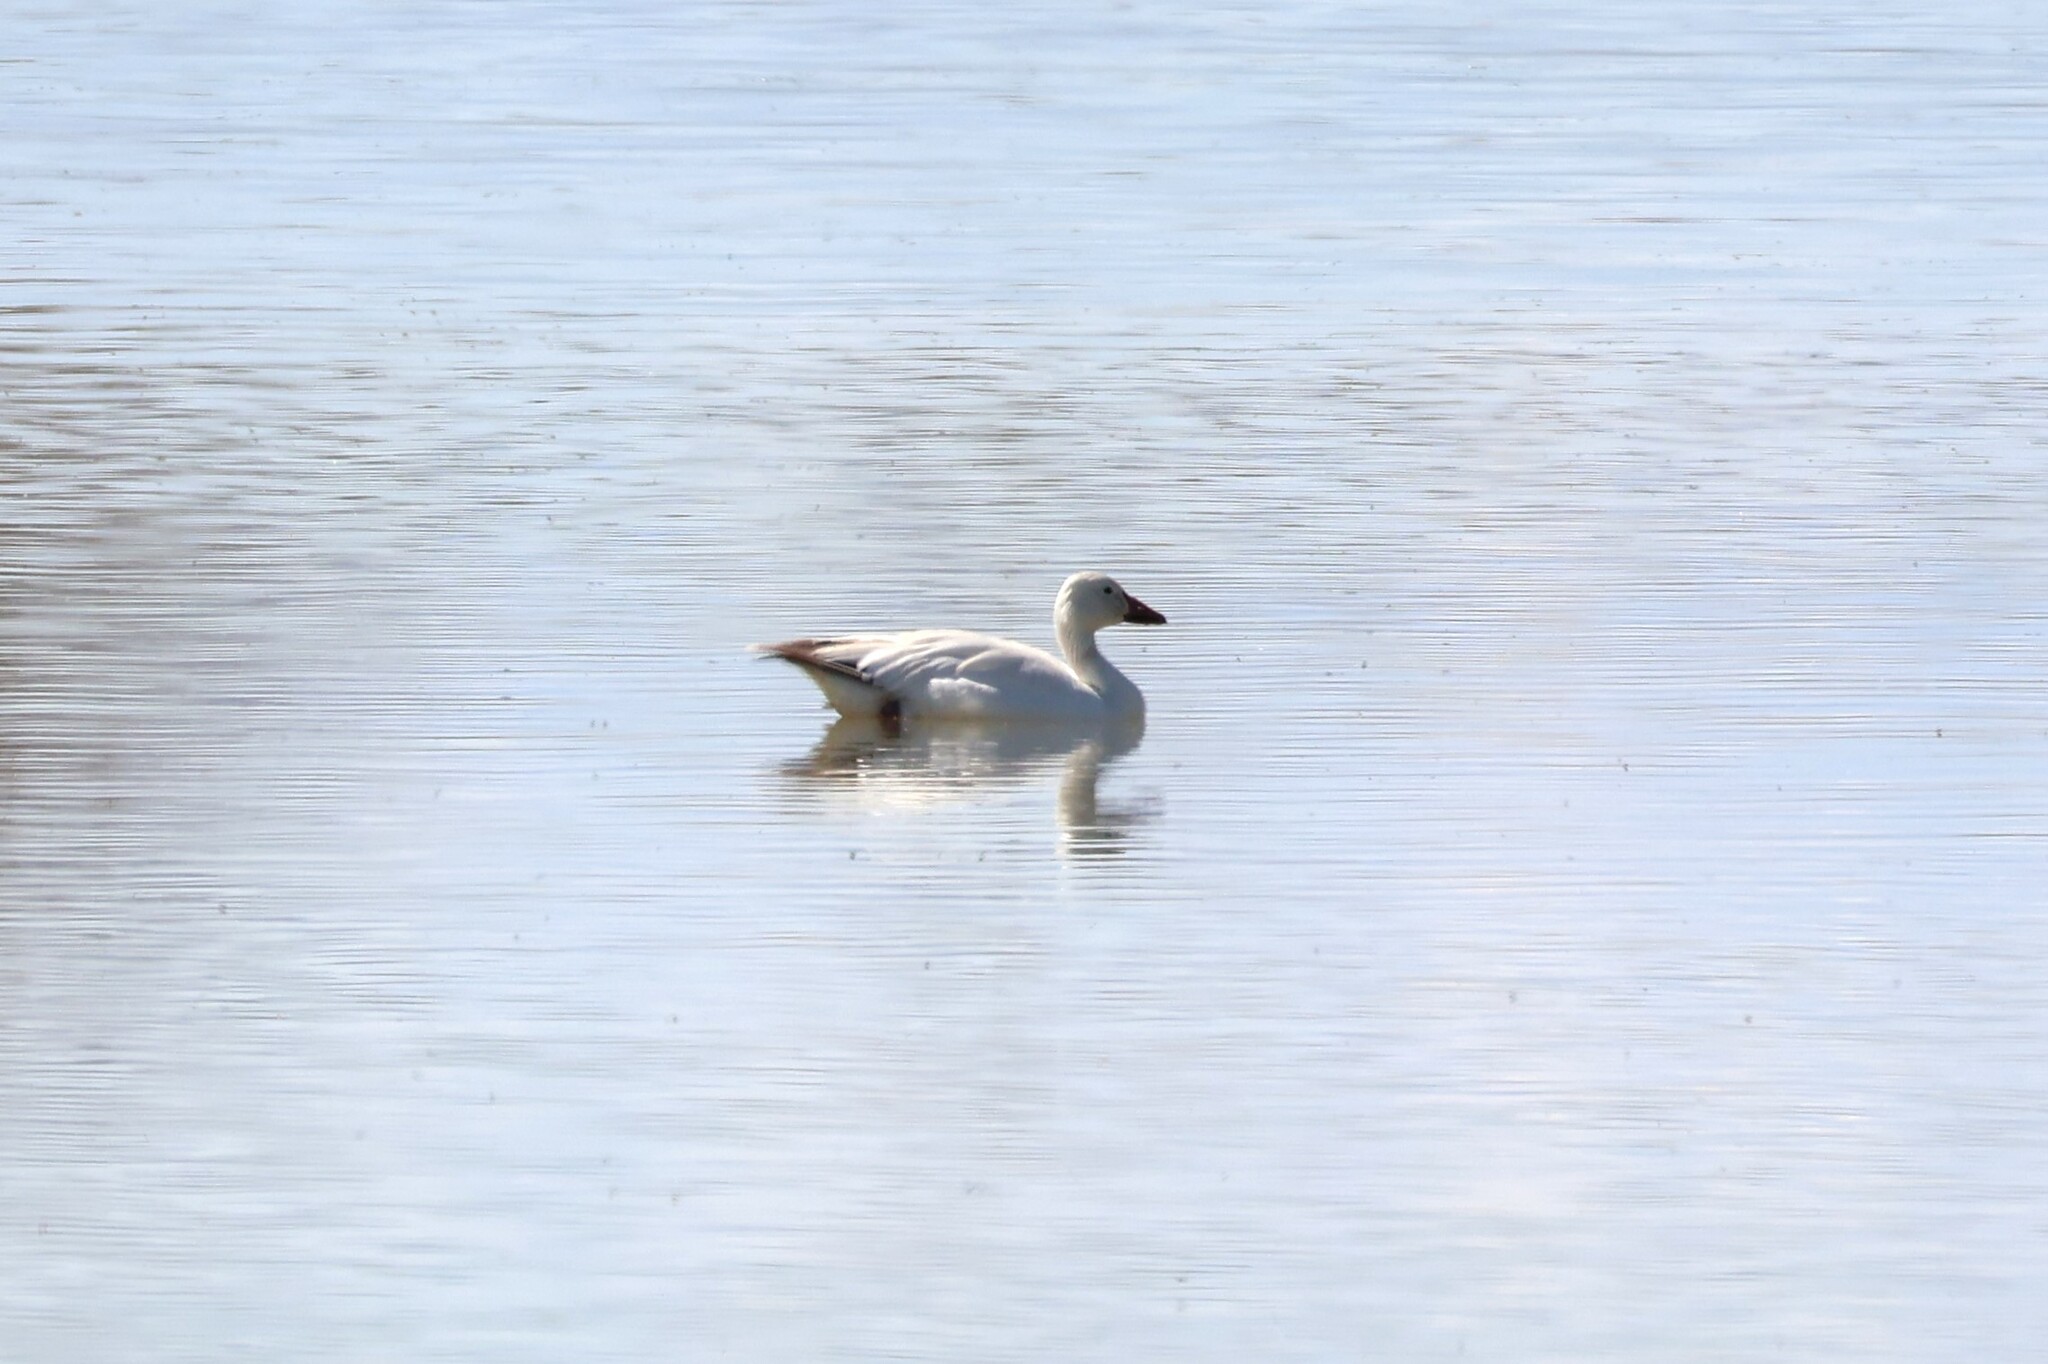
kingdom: Animalia
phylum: Chordata
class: Aves
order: Anseriformes
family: Anatidae
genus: Anser
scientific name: Anser caerulescens
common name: Snow goose
